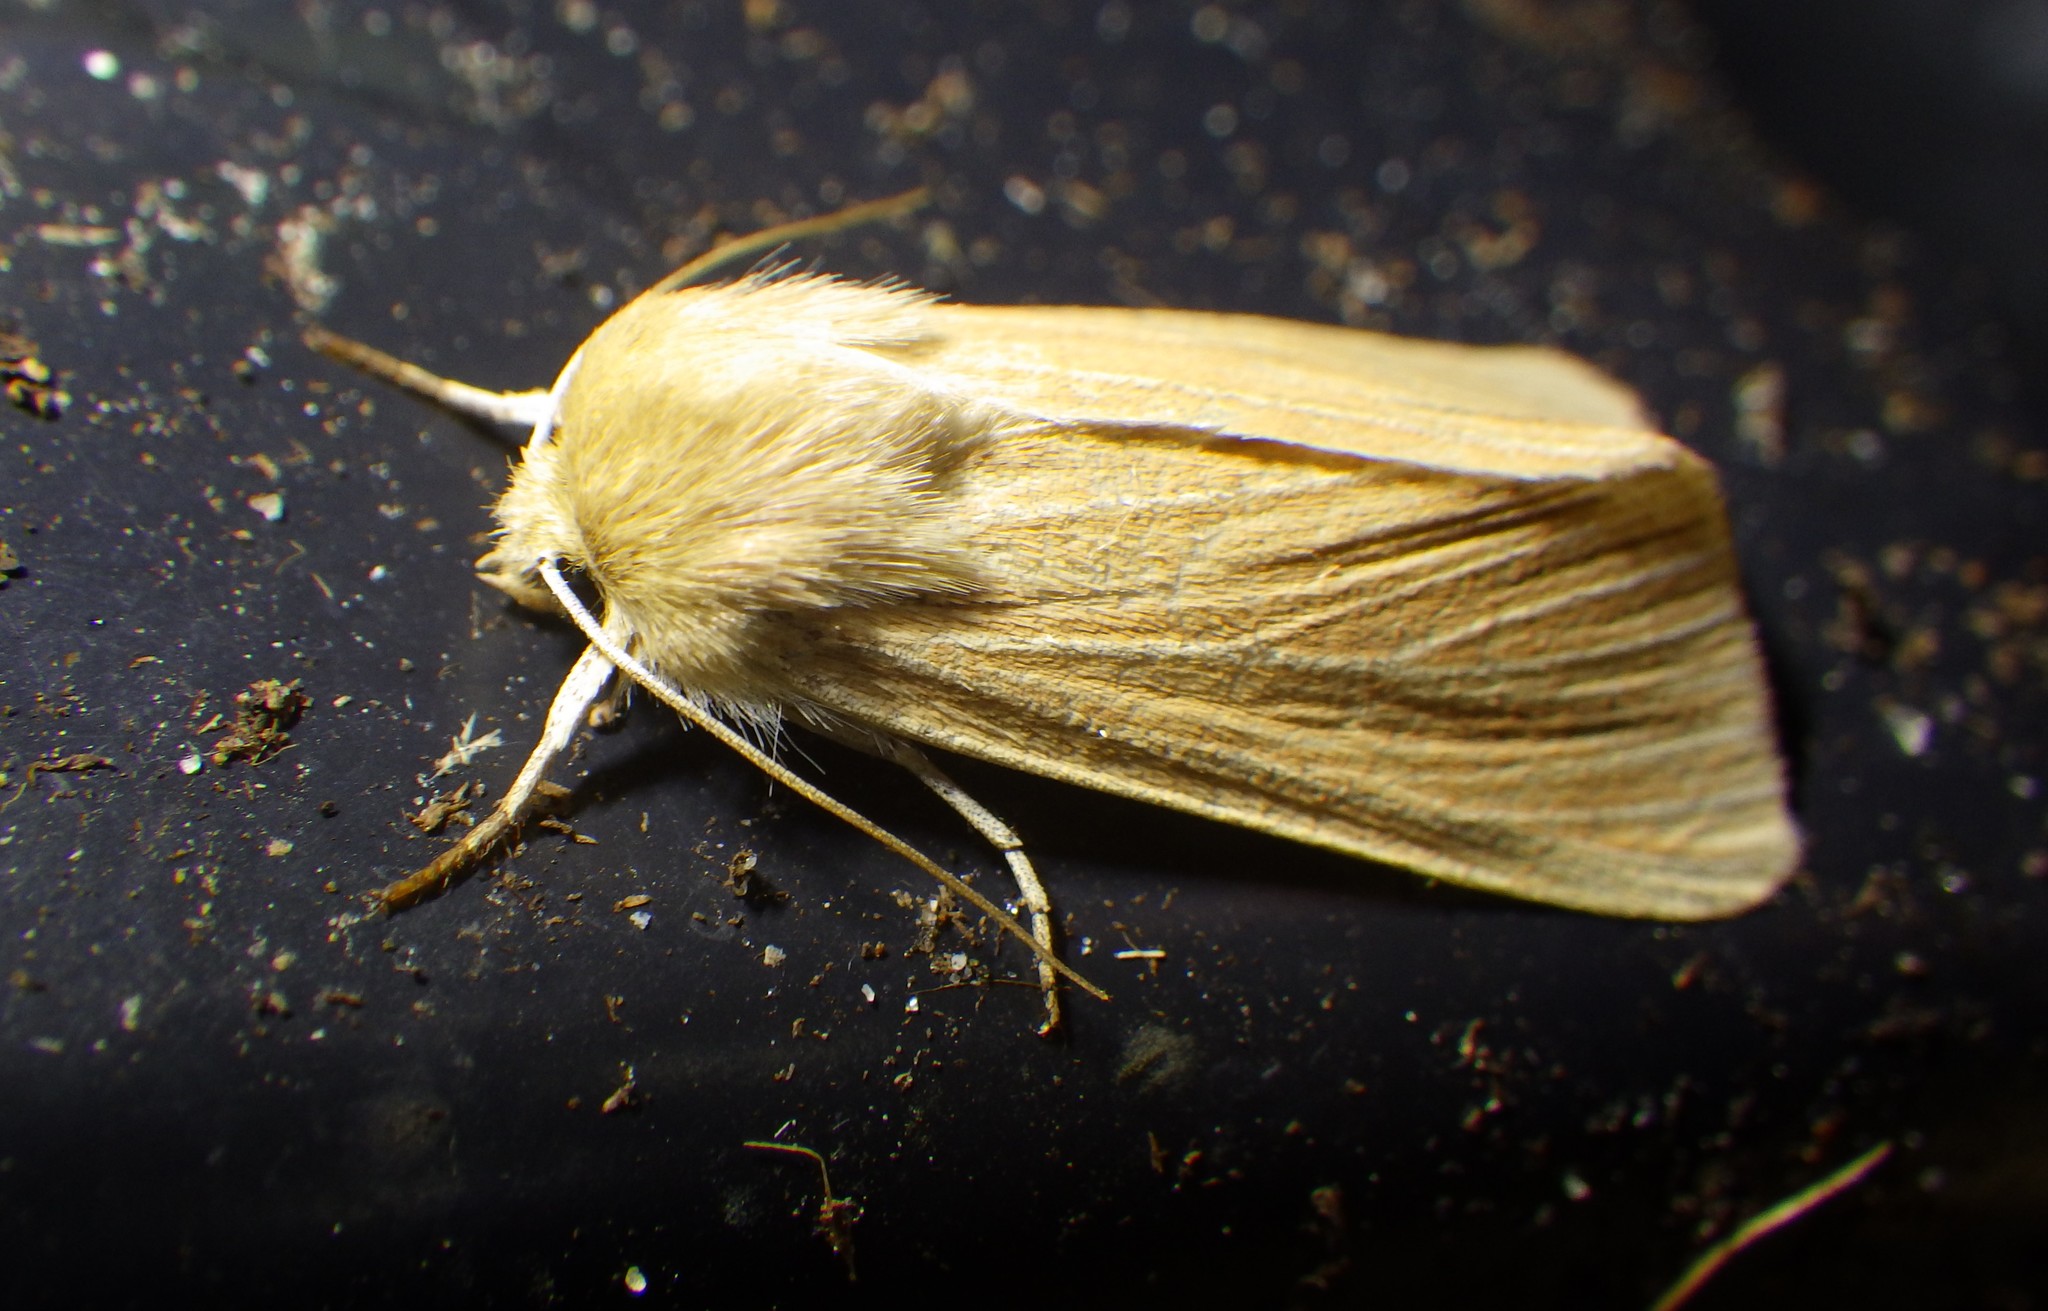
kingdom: Animalia
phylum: Arthropoda
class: Insecta
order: Lepidoptera
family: Noctuidae
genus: Mythimna
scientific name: Mythimna pallens
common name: Common wainscot
